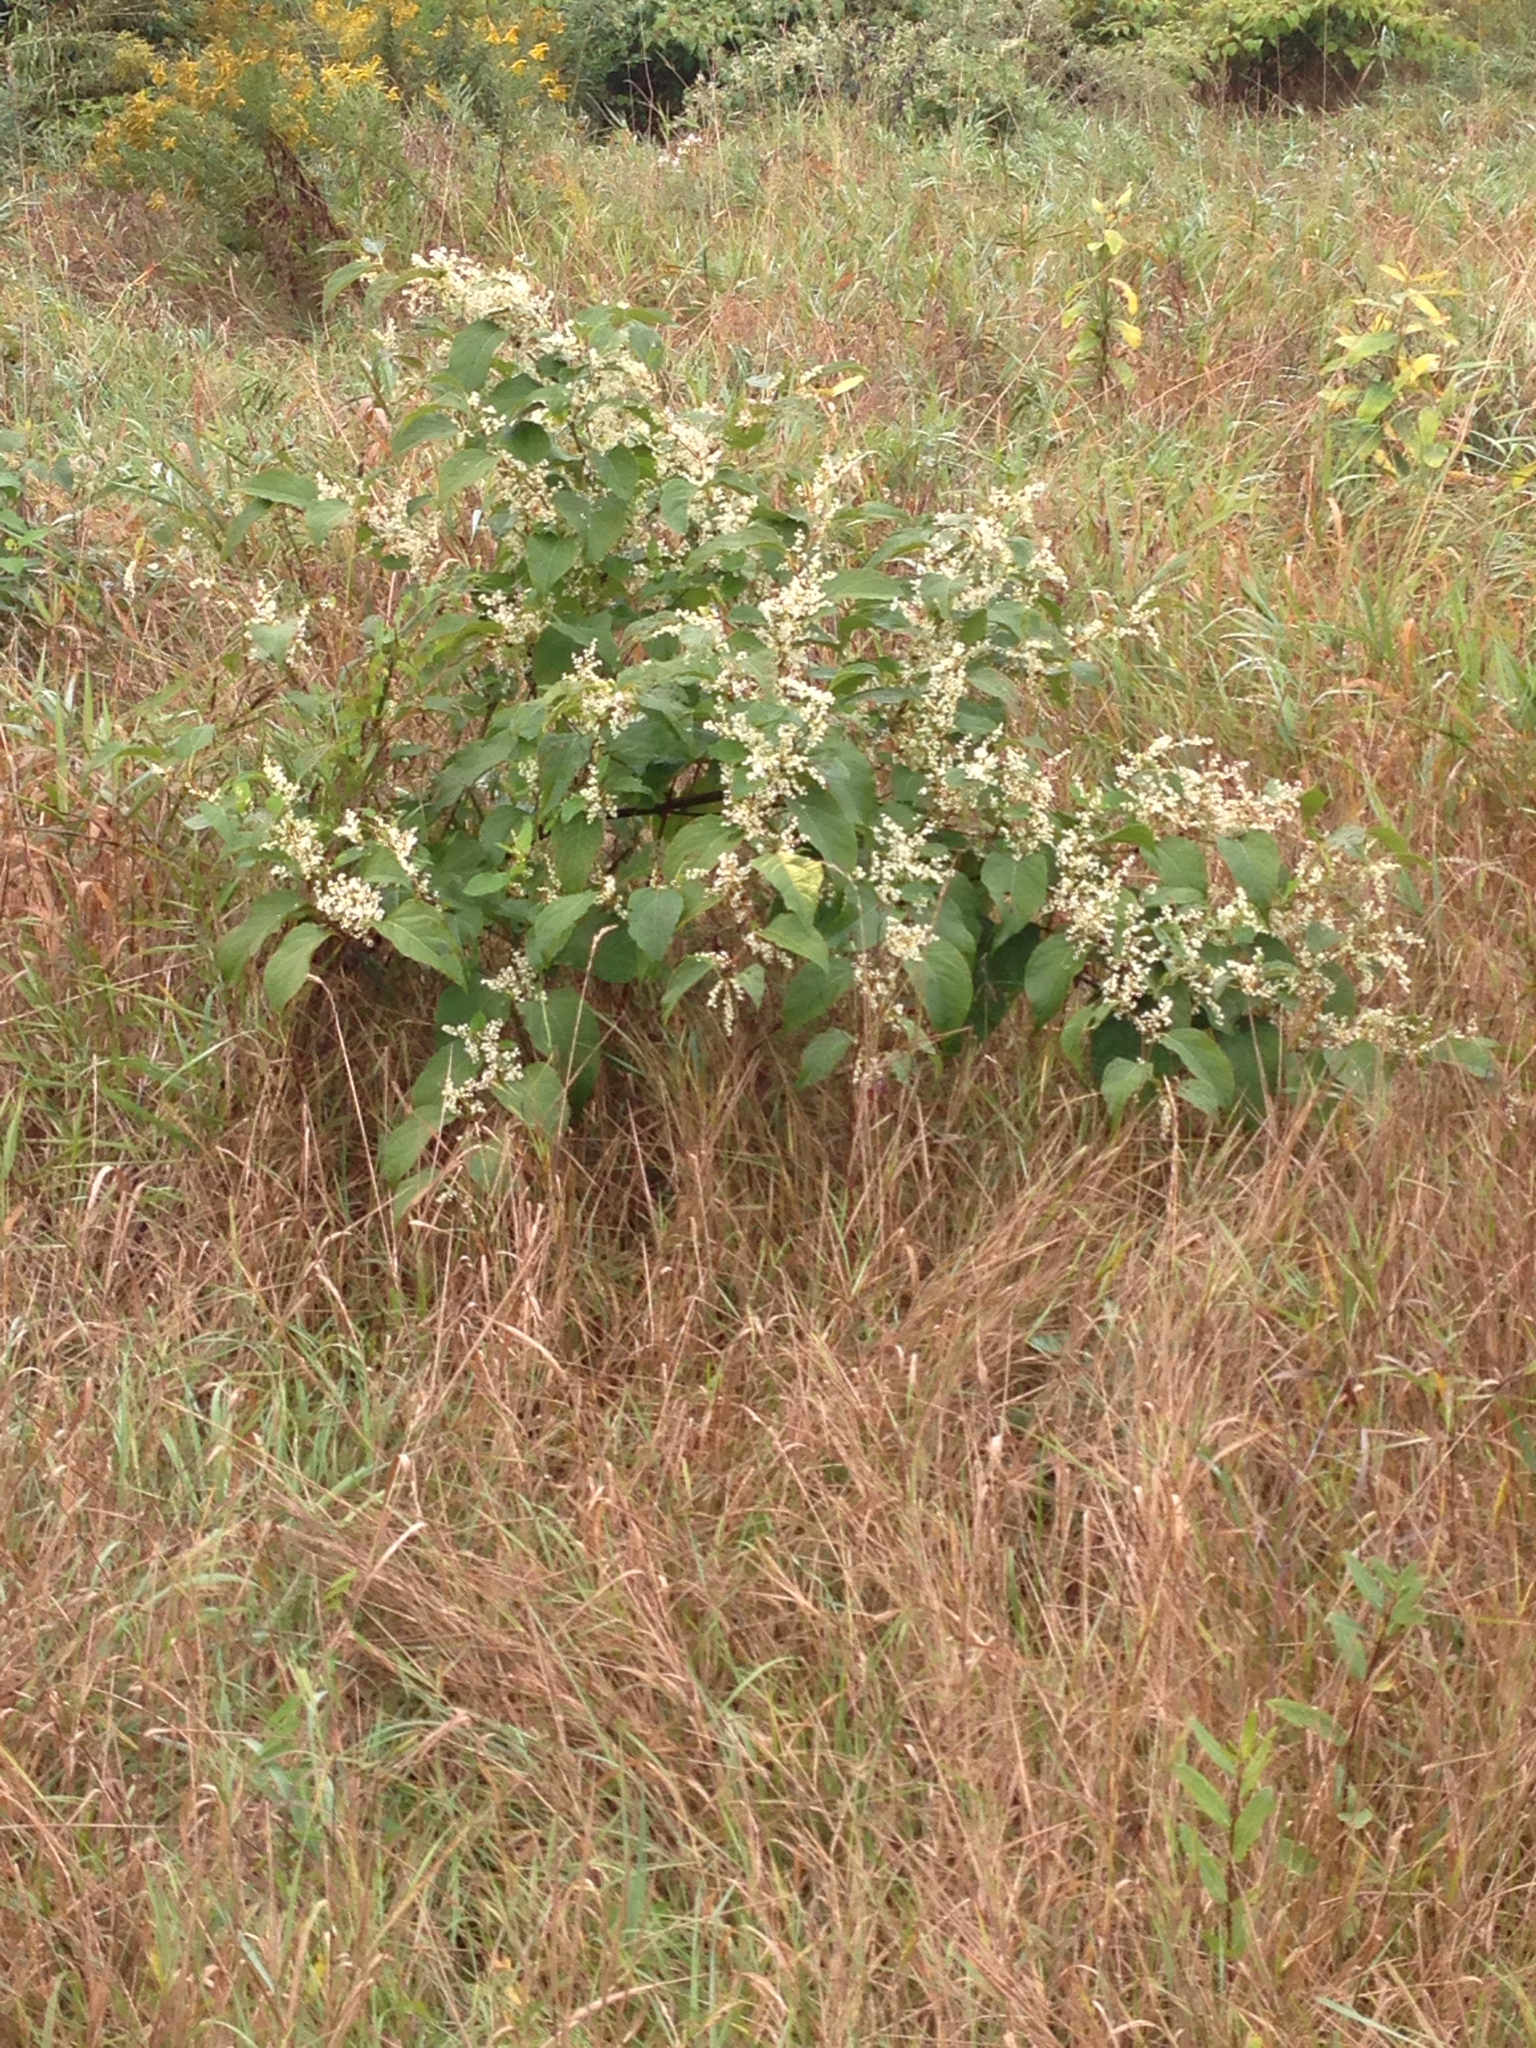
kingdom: Plantae
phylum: Tracheophyta
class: Magnoliopsida
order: Caryophyllales
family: Polygonaceae
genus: Reynoutria
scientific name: Reynoutria japonica
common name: Japanese knotweed
